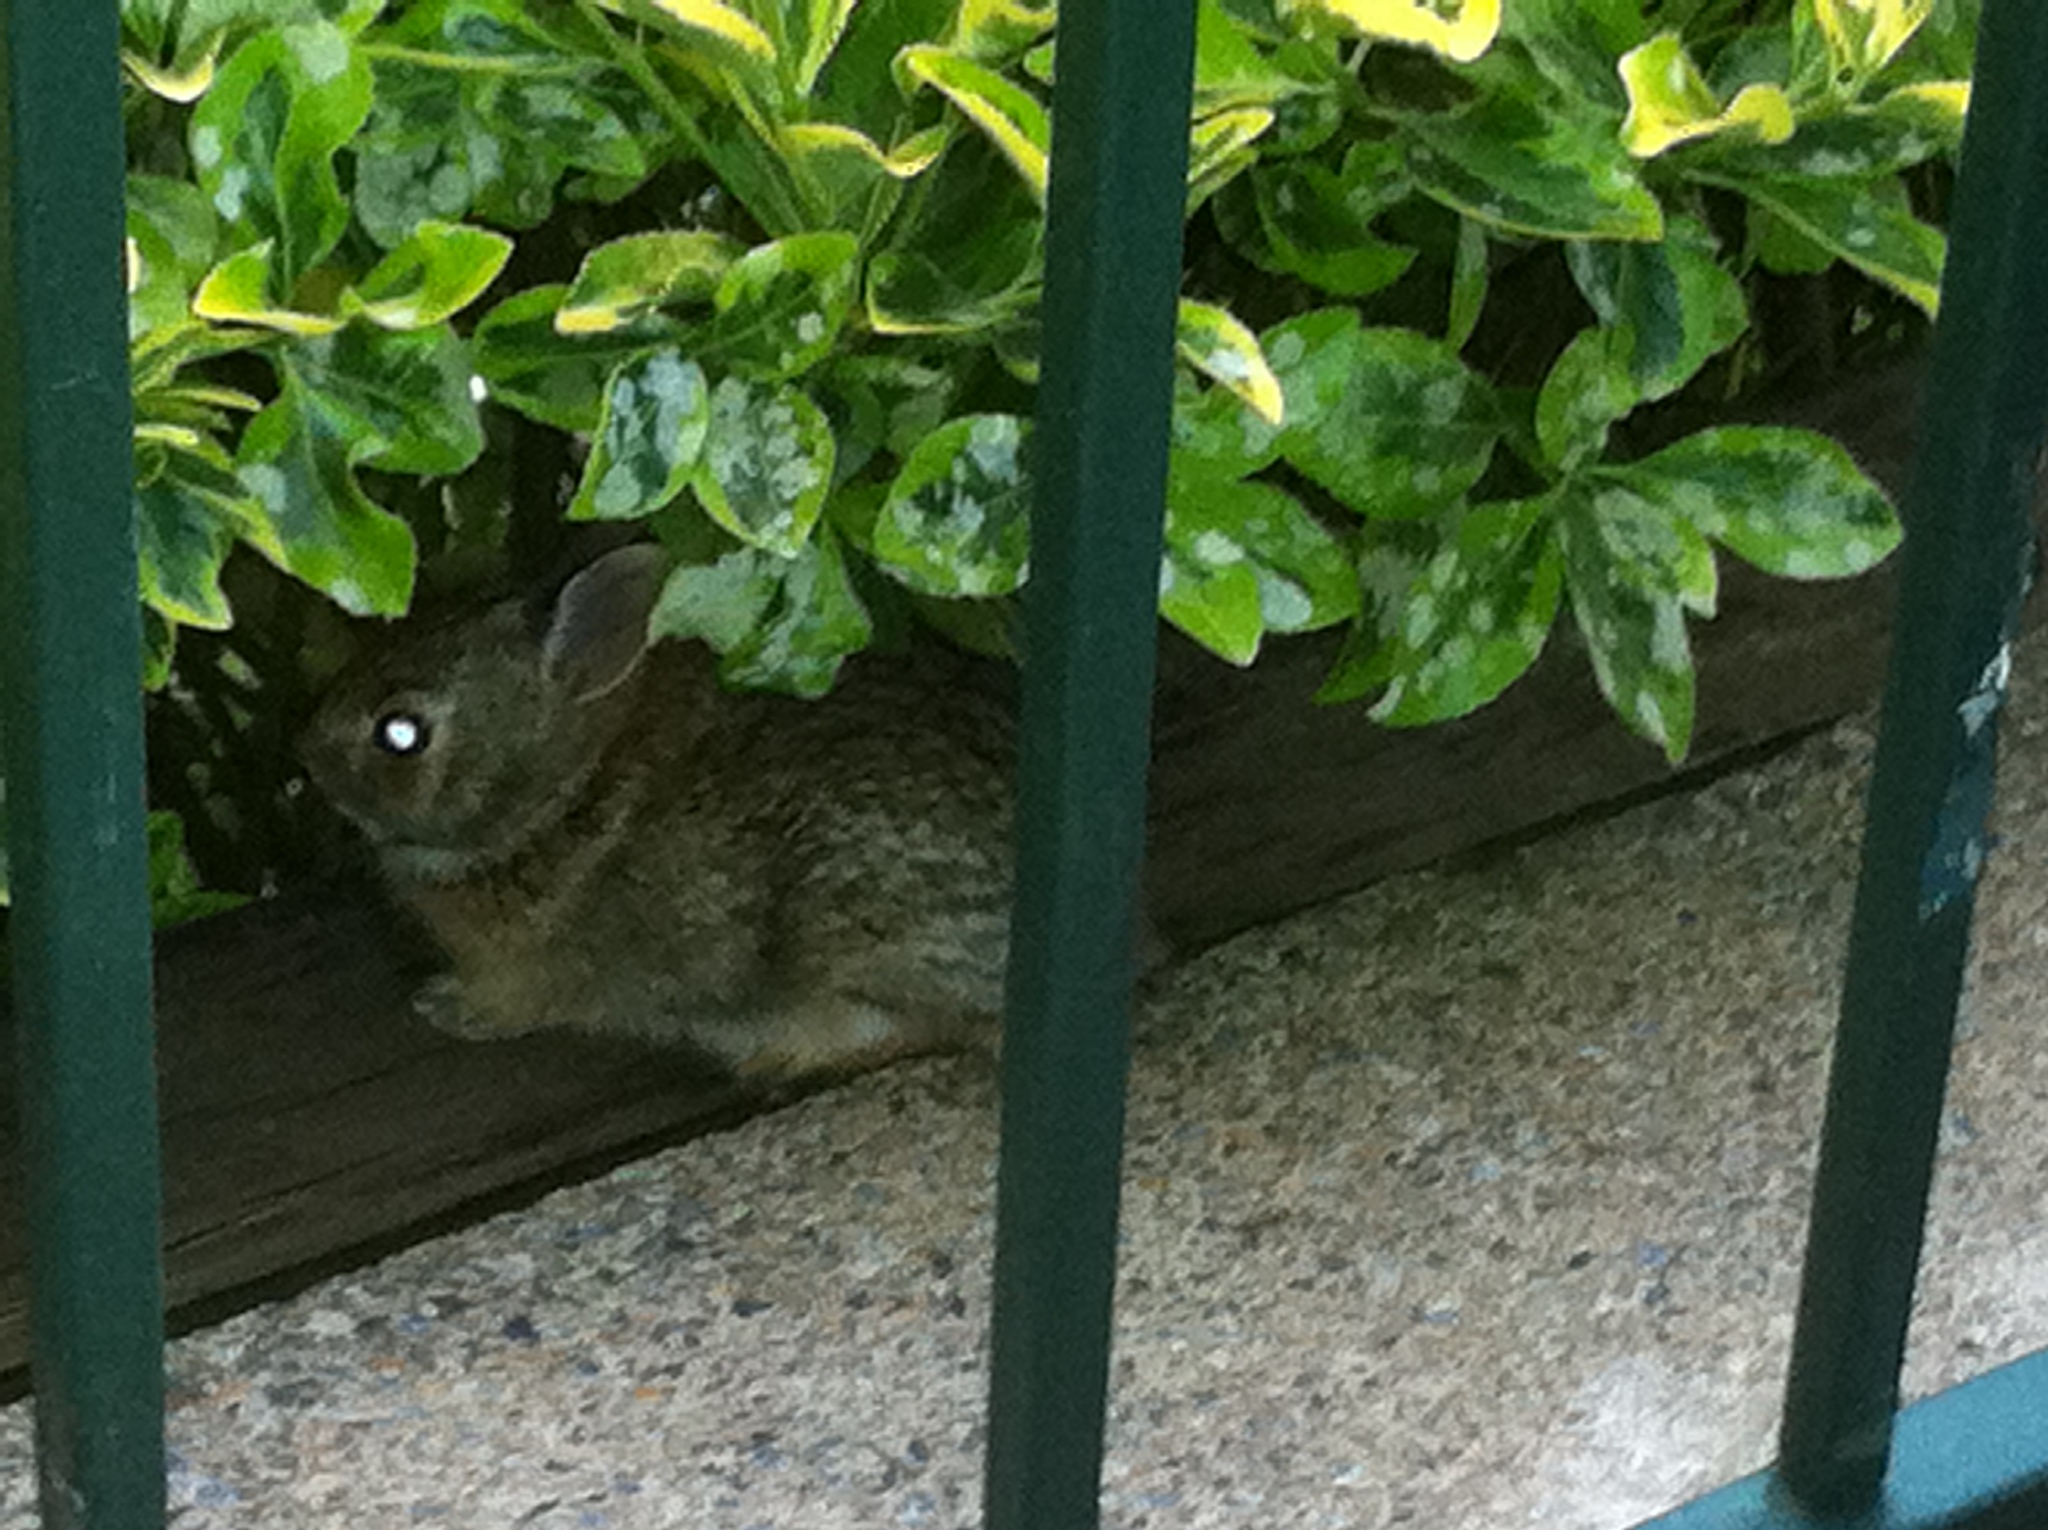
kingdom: Animalia
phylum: Chordata
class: Mammalia
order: Lagomorpha
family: Leporidae
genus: Sylvilagus
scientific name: Sylvilagus floridanus
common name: Eastern cottontail
